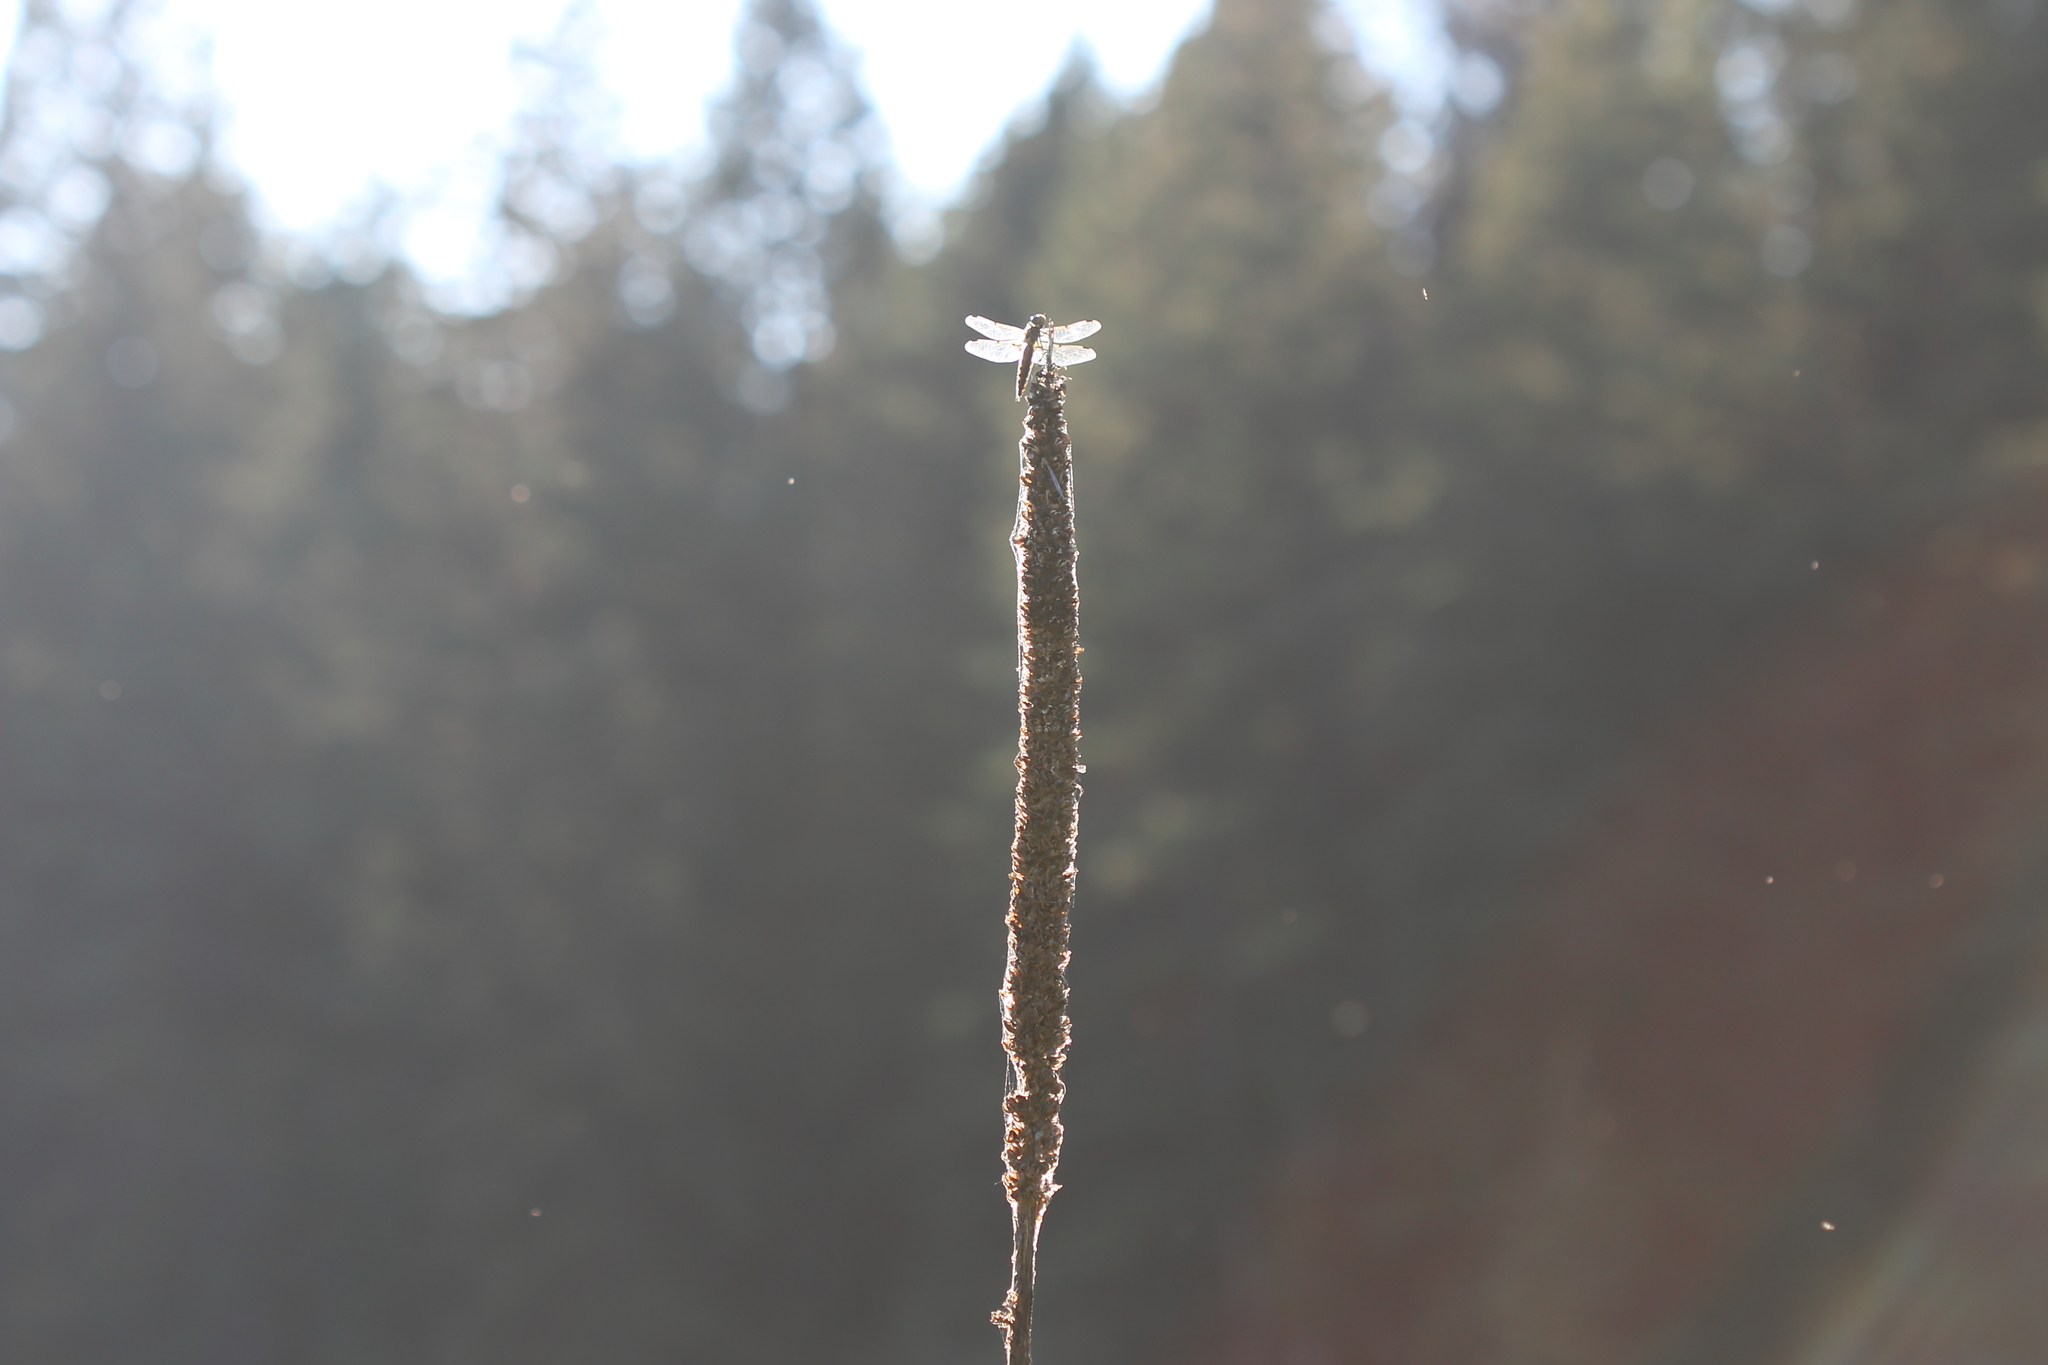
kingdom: Animalia
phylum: Arthropoda
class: Insecta
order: Odonata
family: Libellulidae
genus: Libellula
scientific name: Libellula quadrimaculata
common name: Four-spotted chaser
